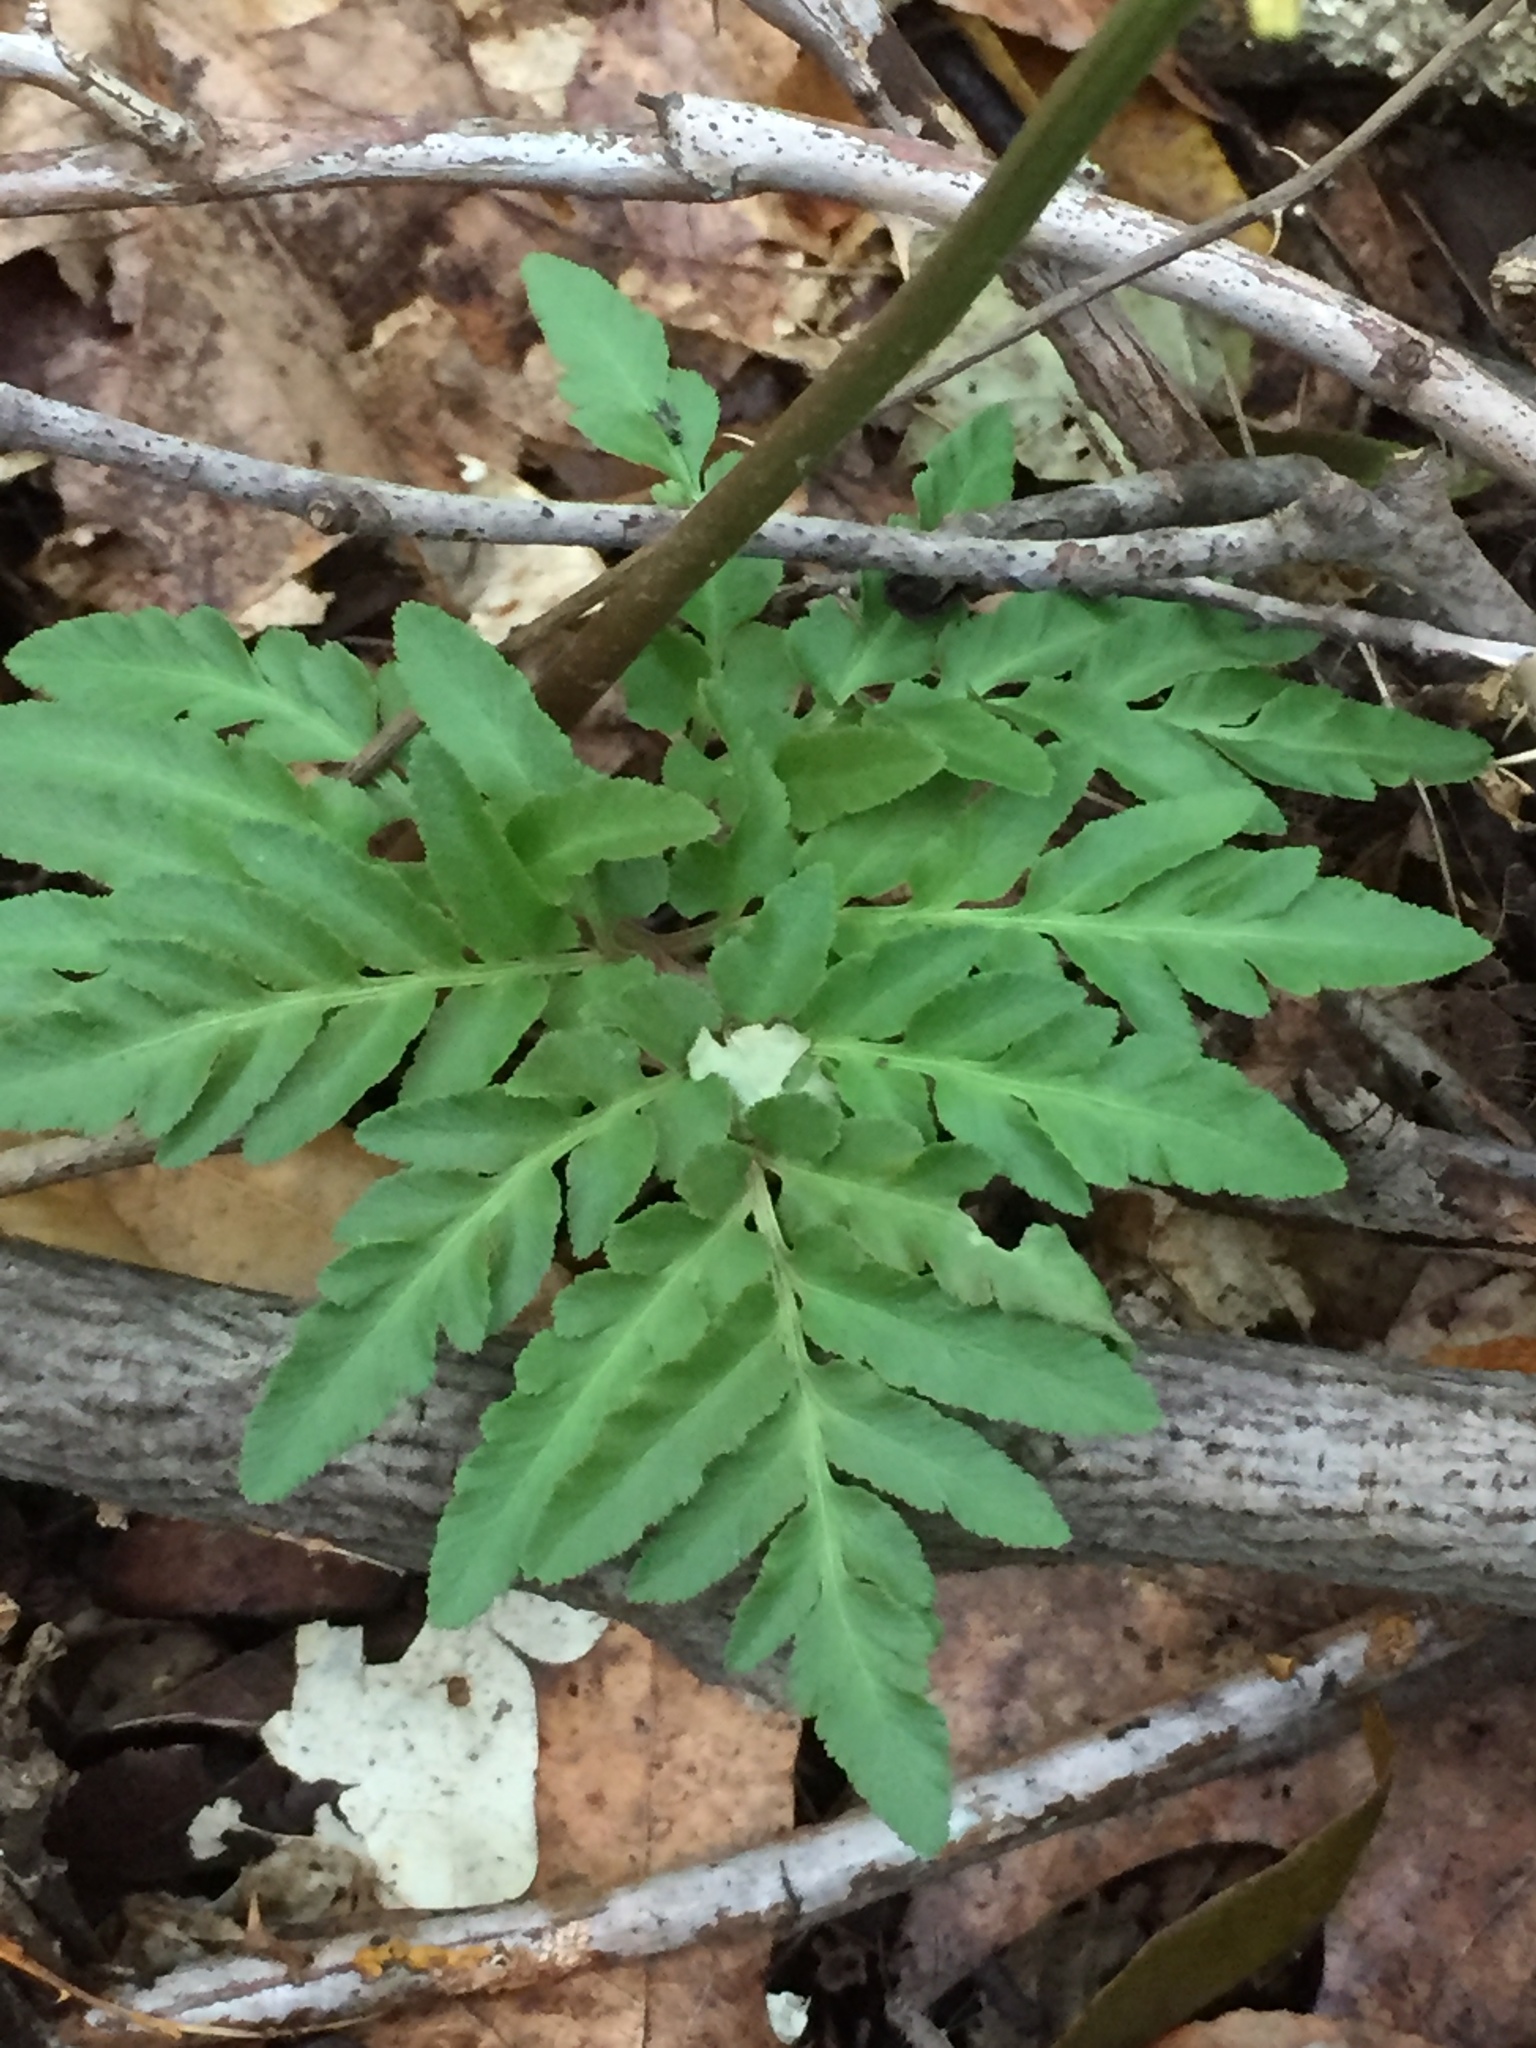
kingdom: Plantae
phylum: Tracheophyta
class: Polypodiopsida
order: Ophioglossales
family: Ophioglossaceae
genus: Sceptridium
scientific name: Sceptridium dissectum
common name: Cut-leaved grapefern
